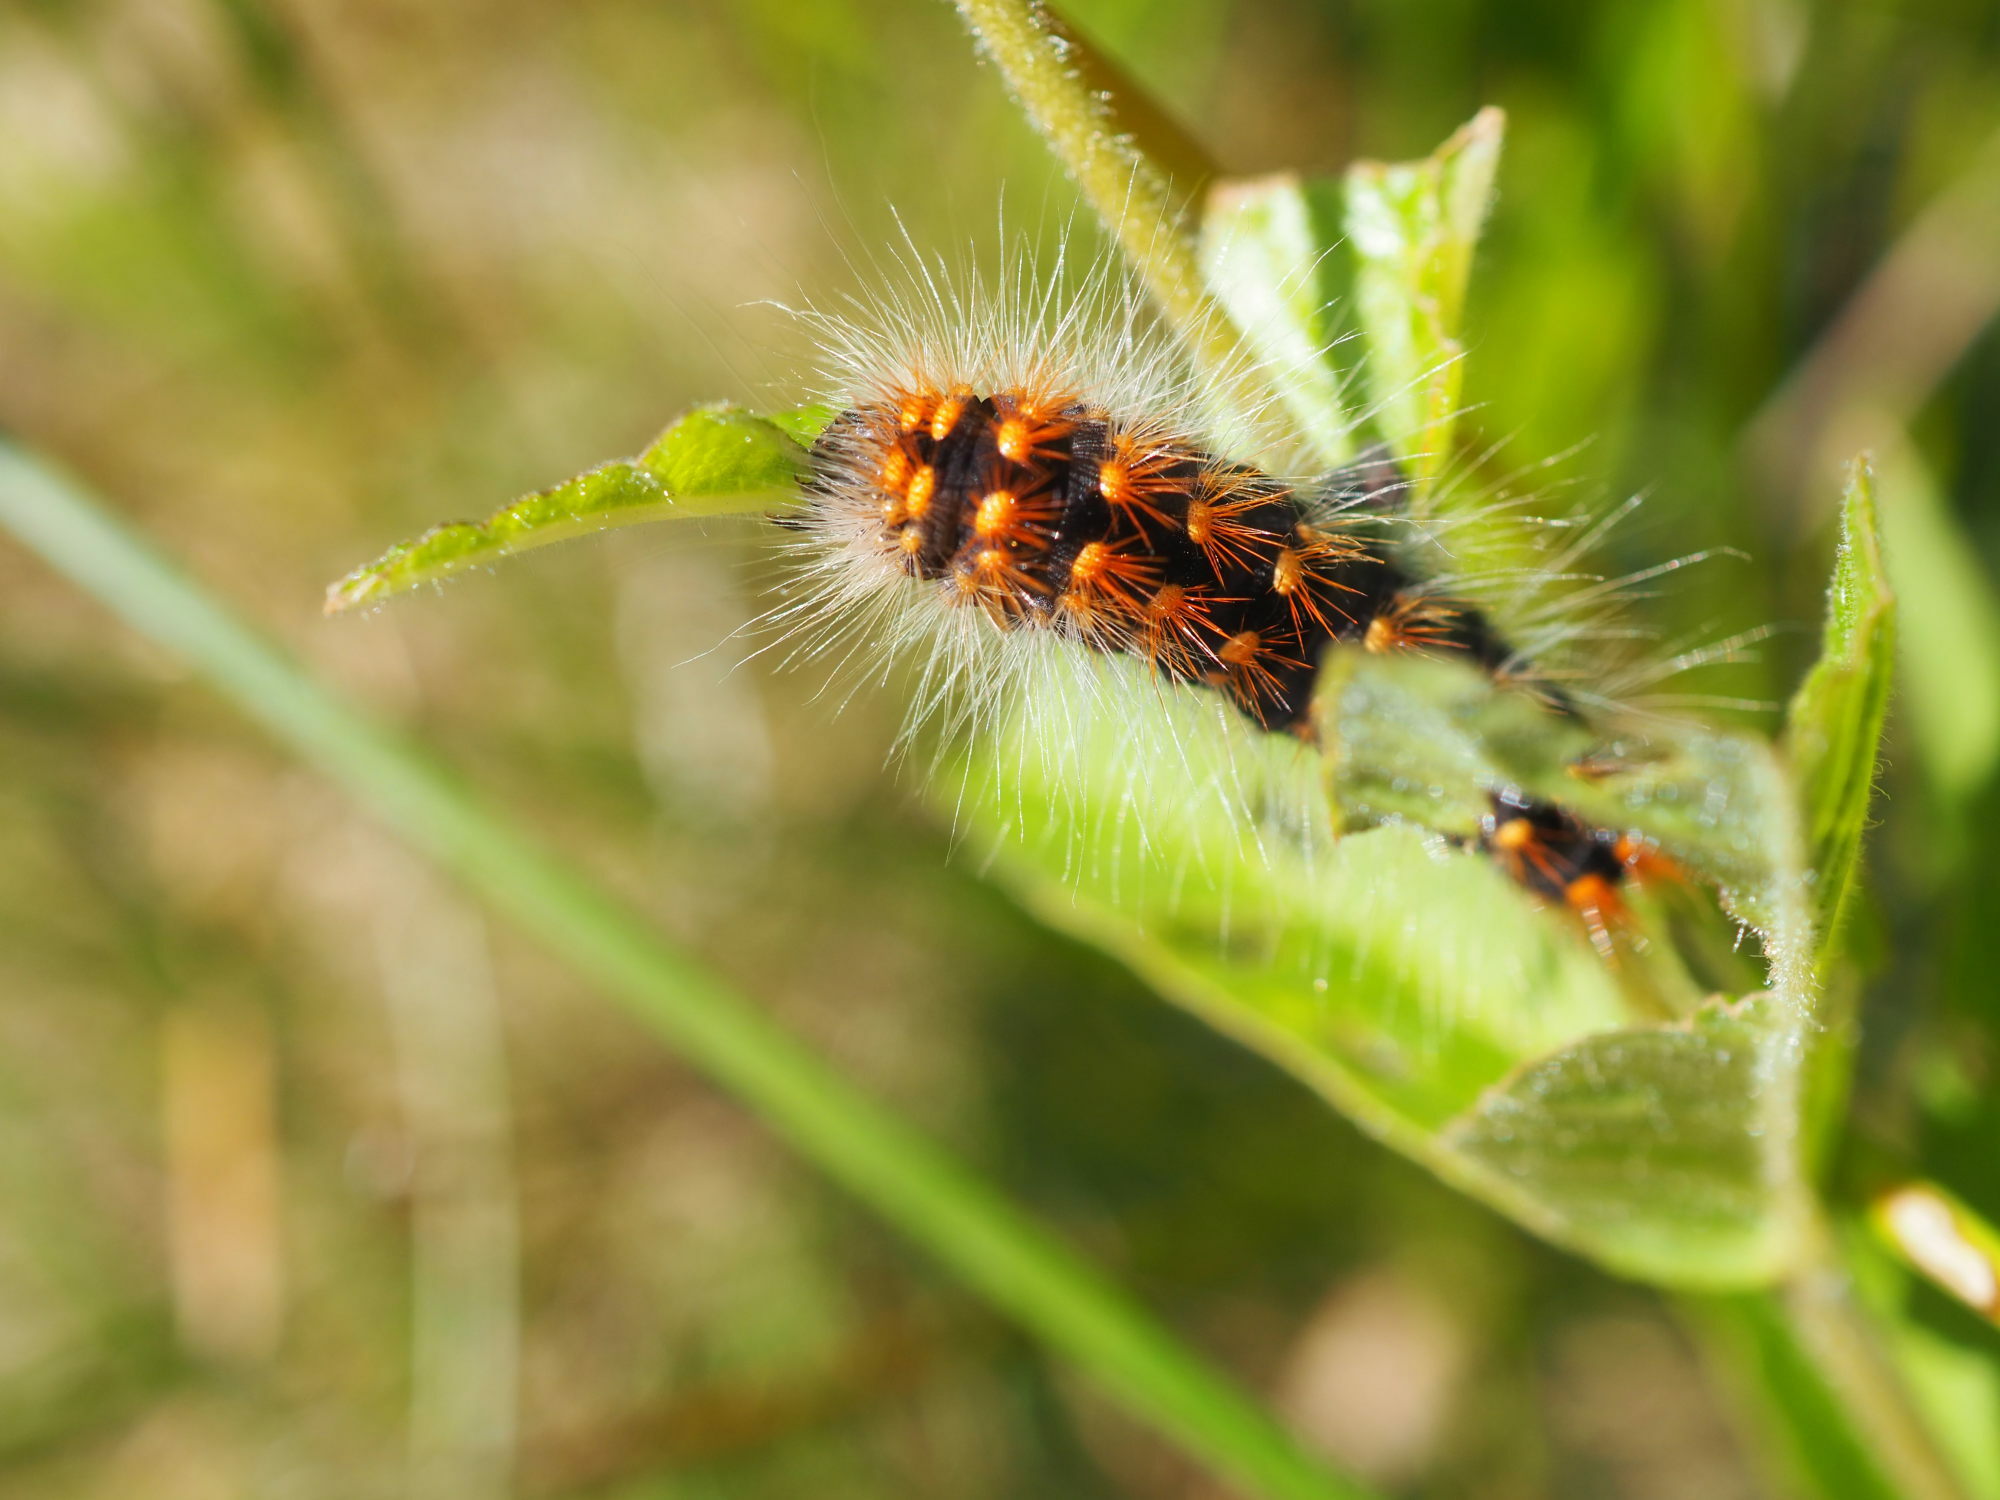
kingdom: Animalia
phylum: Arthropoda
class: Insecta
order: Lepidoptera
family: Noctuidae
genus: Acronicta
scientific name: Acronicta auricoma
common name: Scarce dagger
